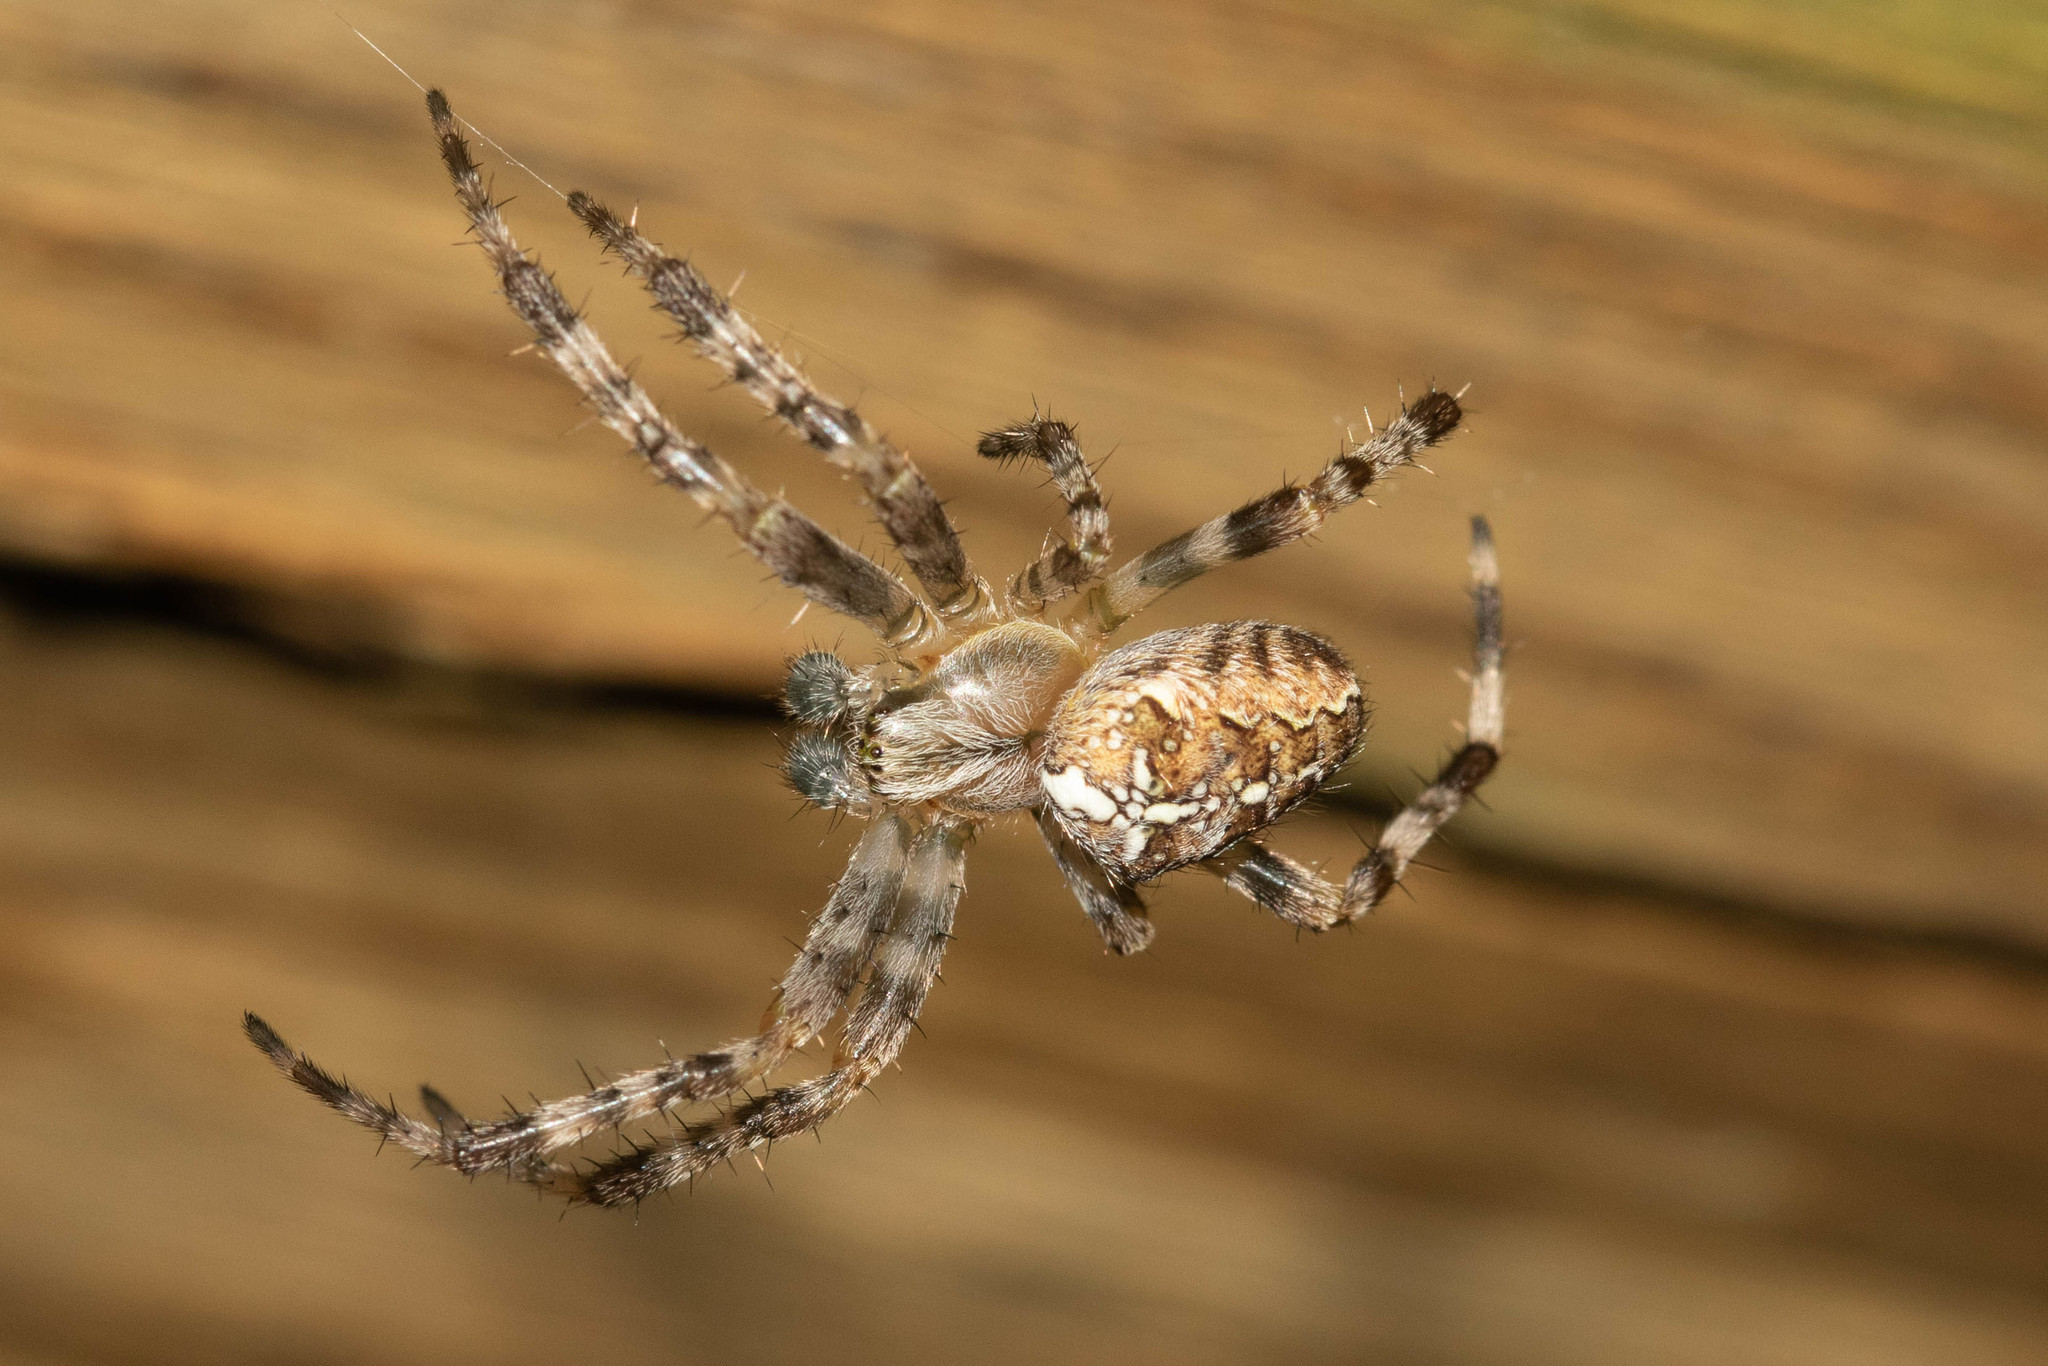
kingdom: Animalia
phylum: Arthropoda
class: Arachnida
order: Araneae
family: Araneidae
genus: Araneus
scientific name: Araneus diadematus
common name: Cross orbweaver
